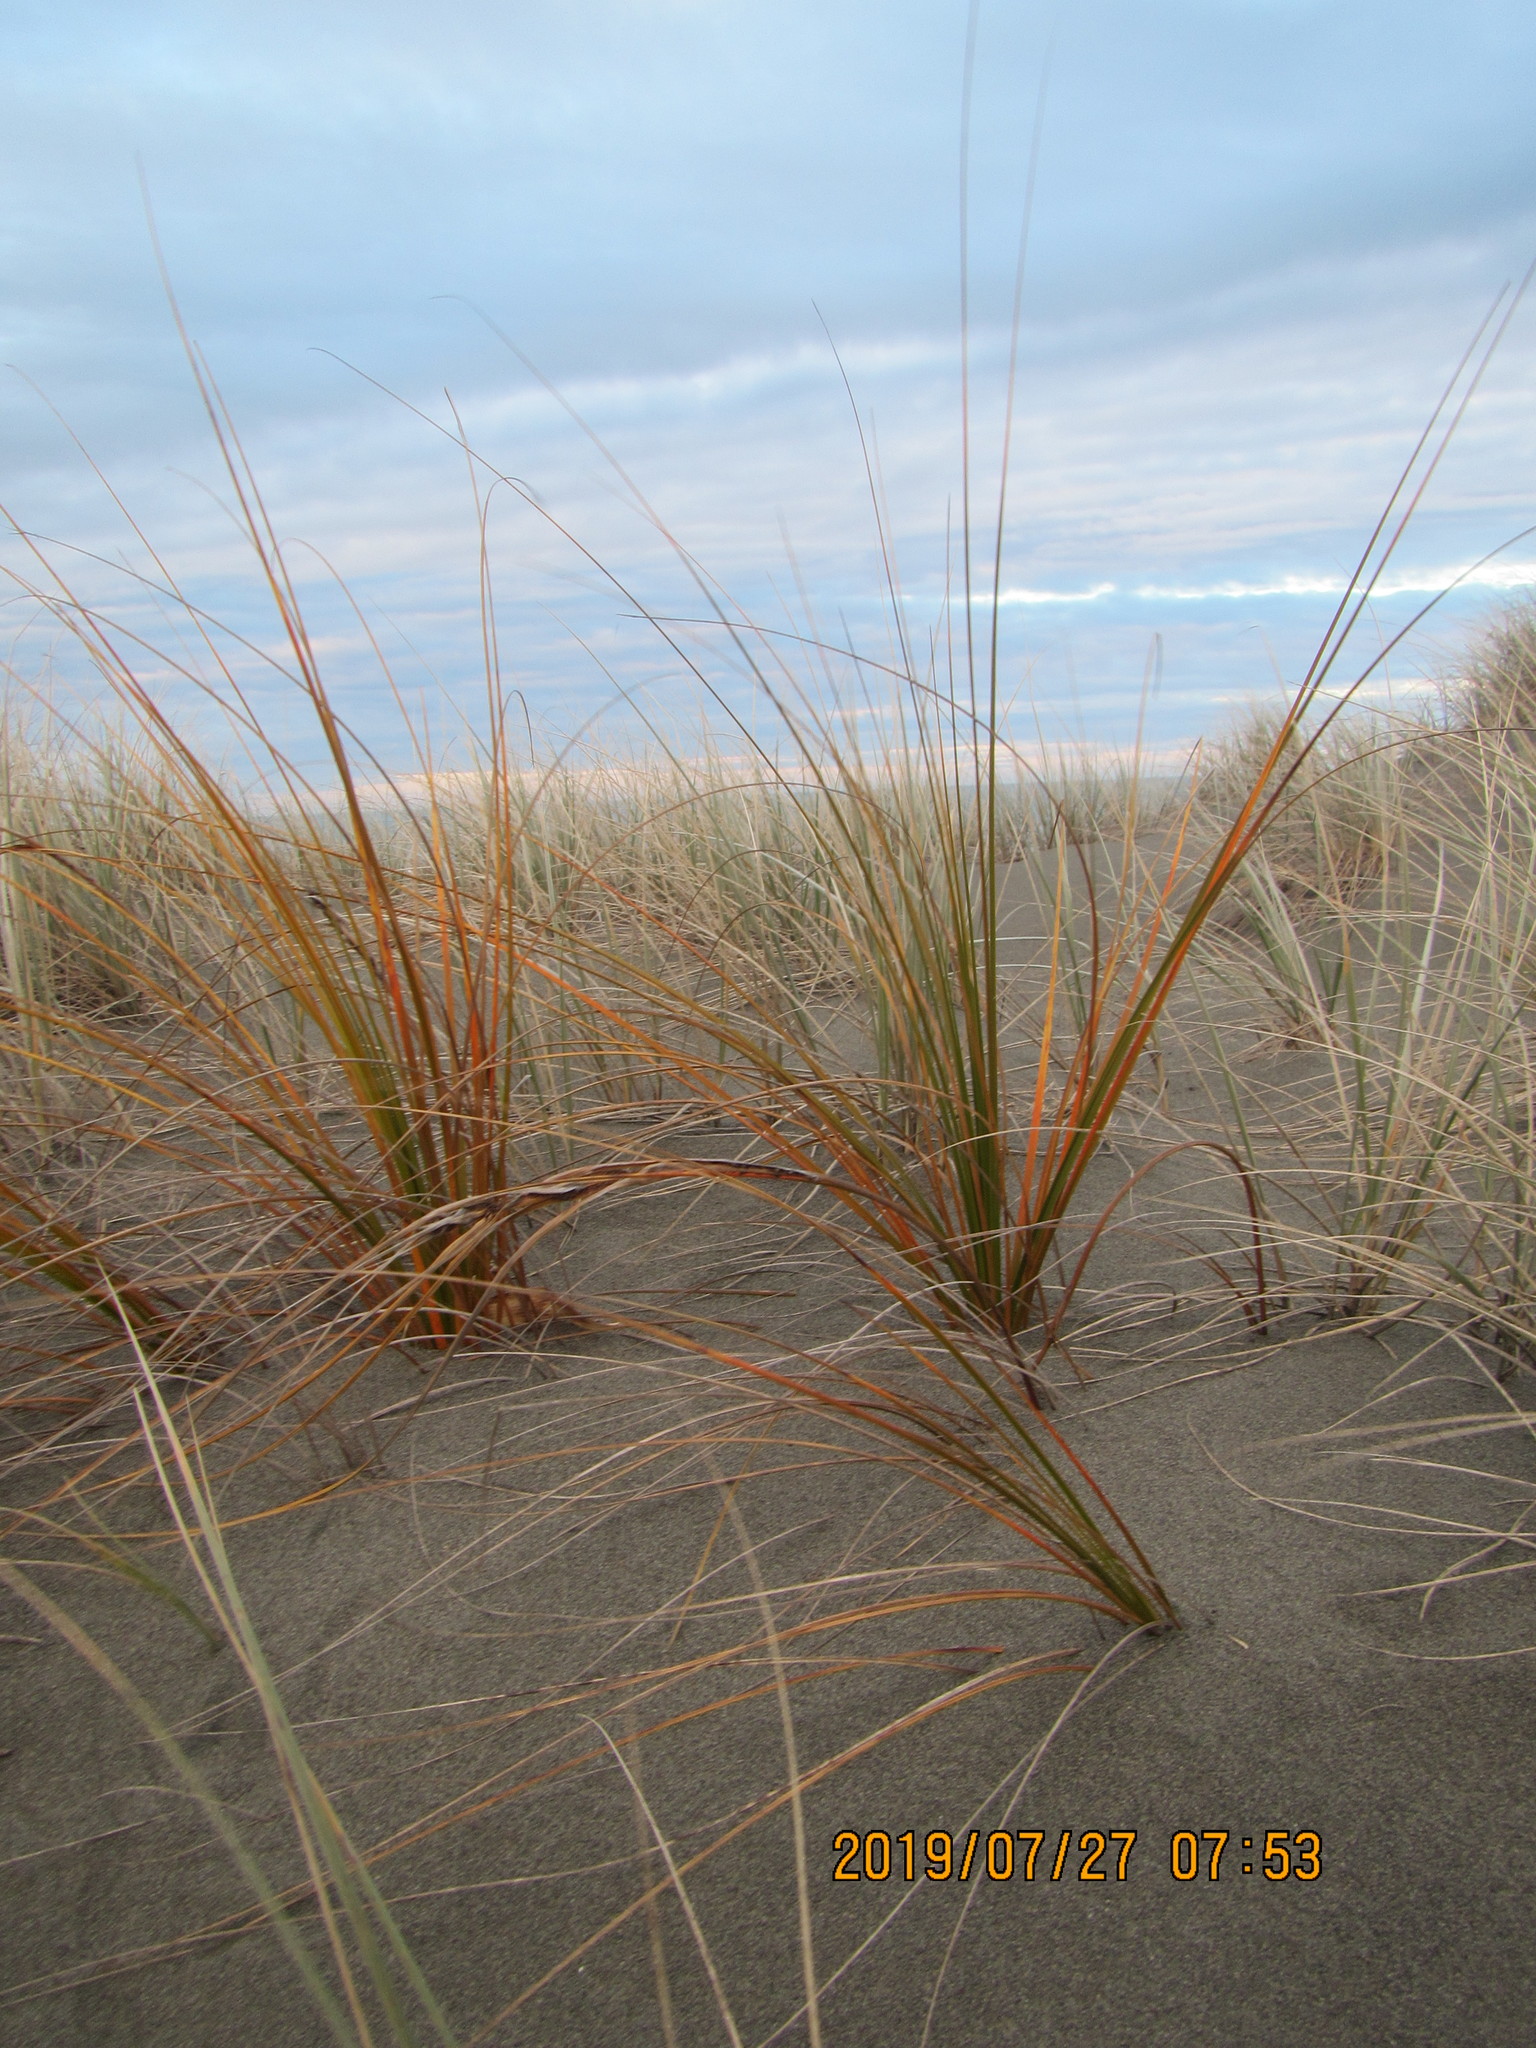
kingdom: Plantae
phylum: Tracheophyta
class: Liliopsida
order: Poales
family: Cyperaceae
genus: Ficinia
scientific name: Ficinia spiralis
